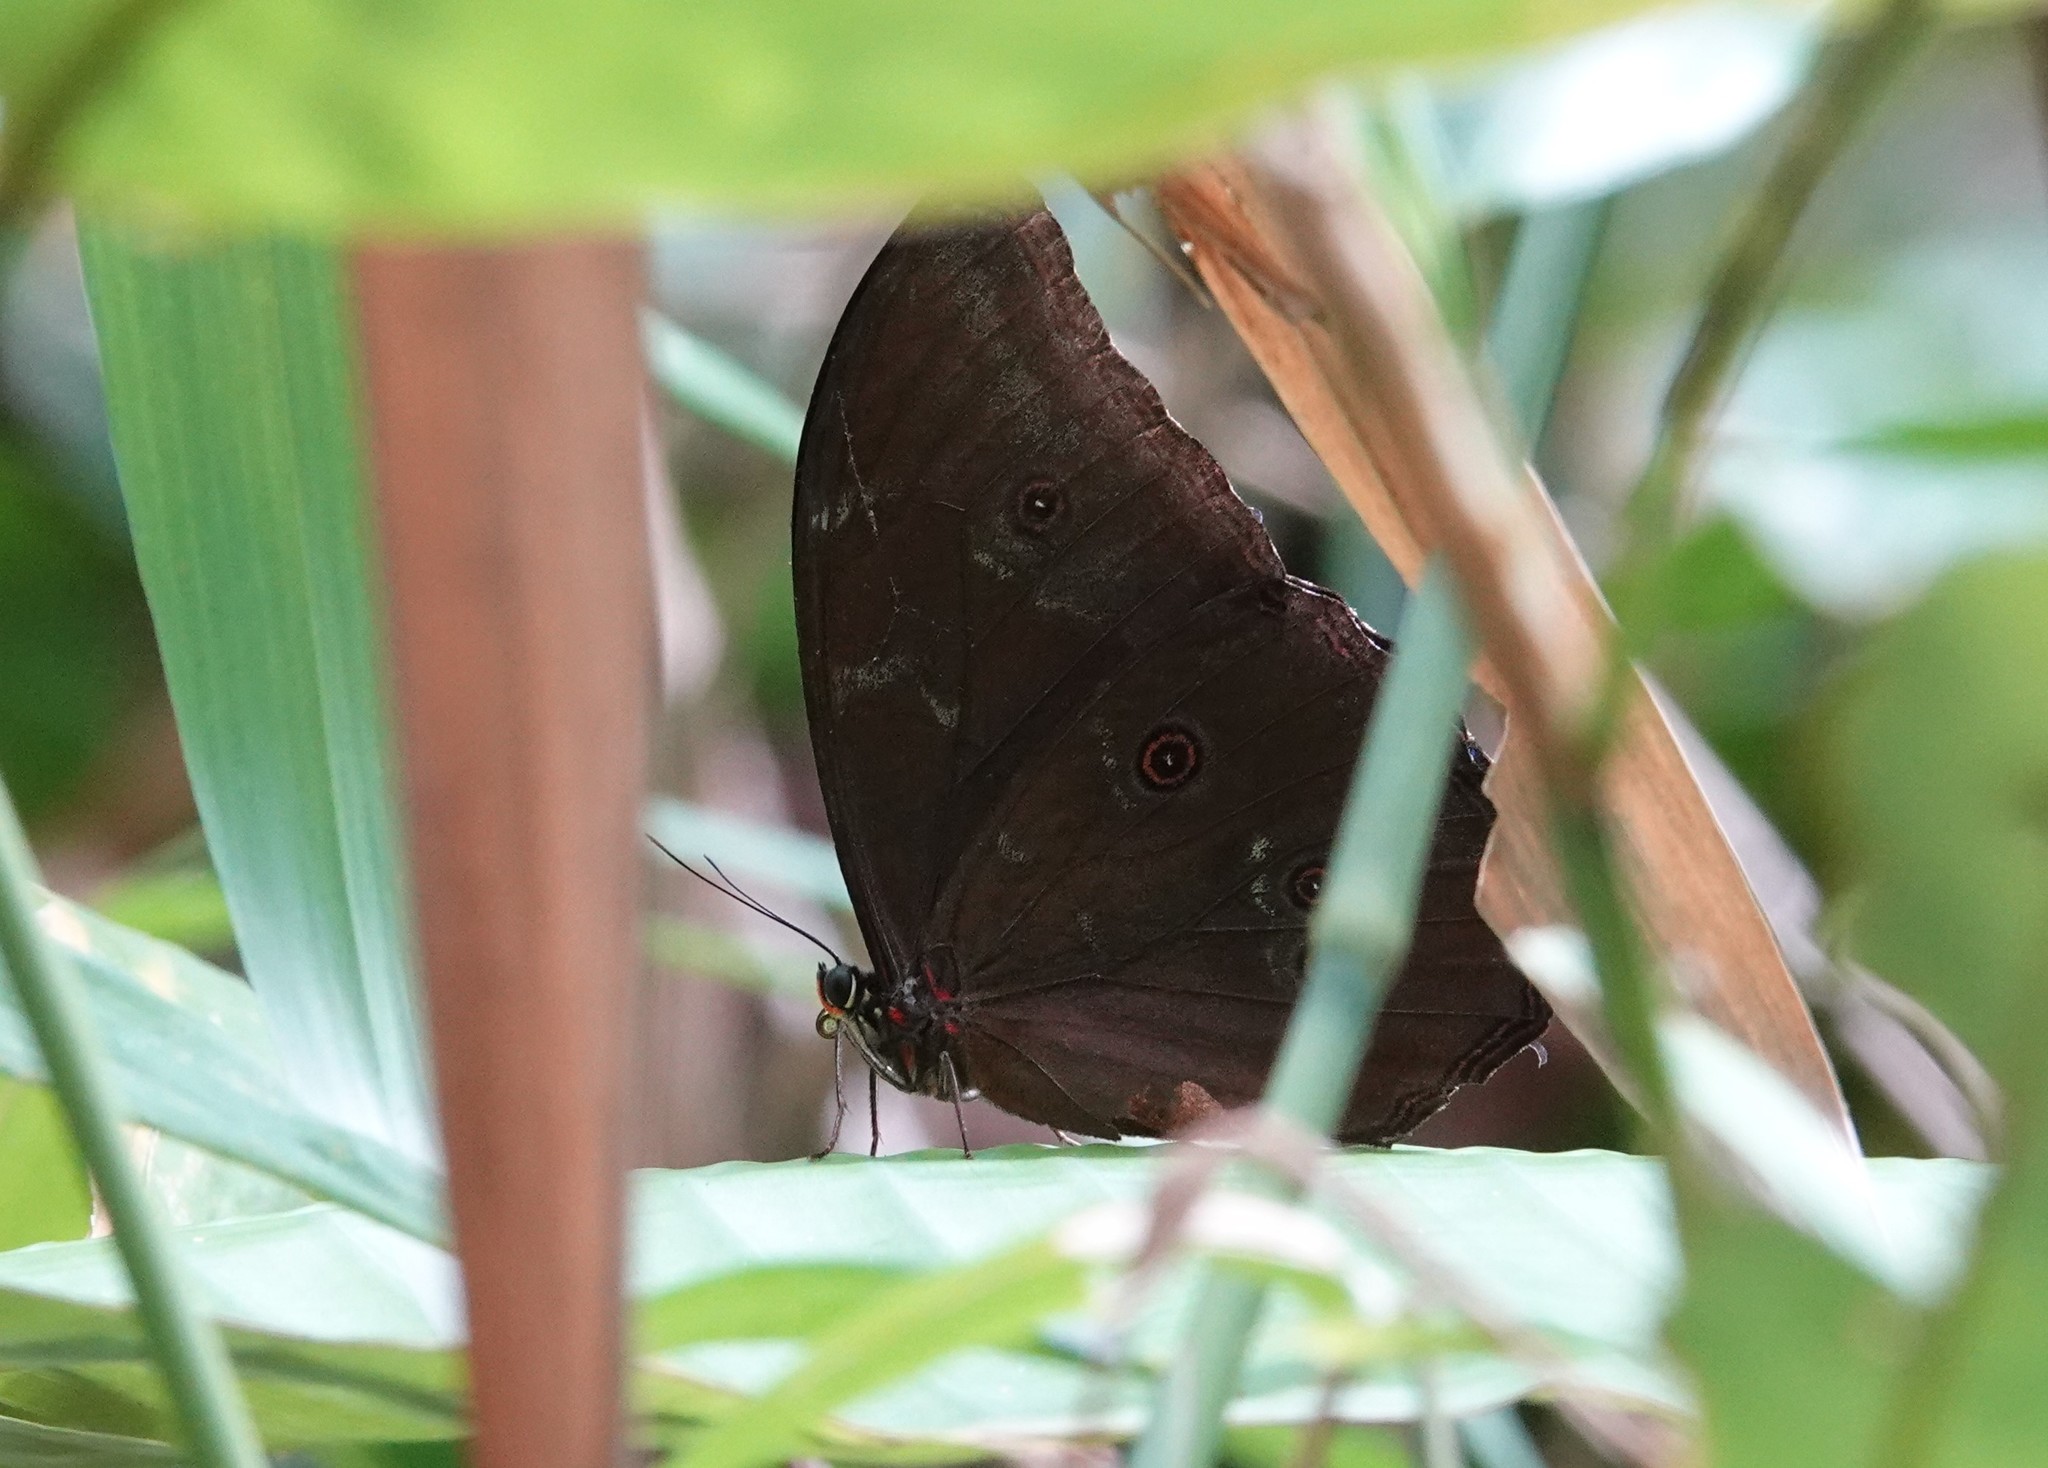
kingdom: Animalia
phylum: Arthropoda
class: Insecta
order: Lepidoptera
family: Nymphalidae
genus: Morpho
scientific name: Morpho menelaus
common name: Menelaus morpho
